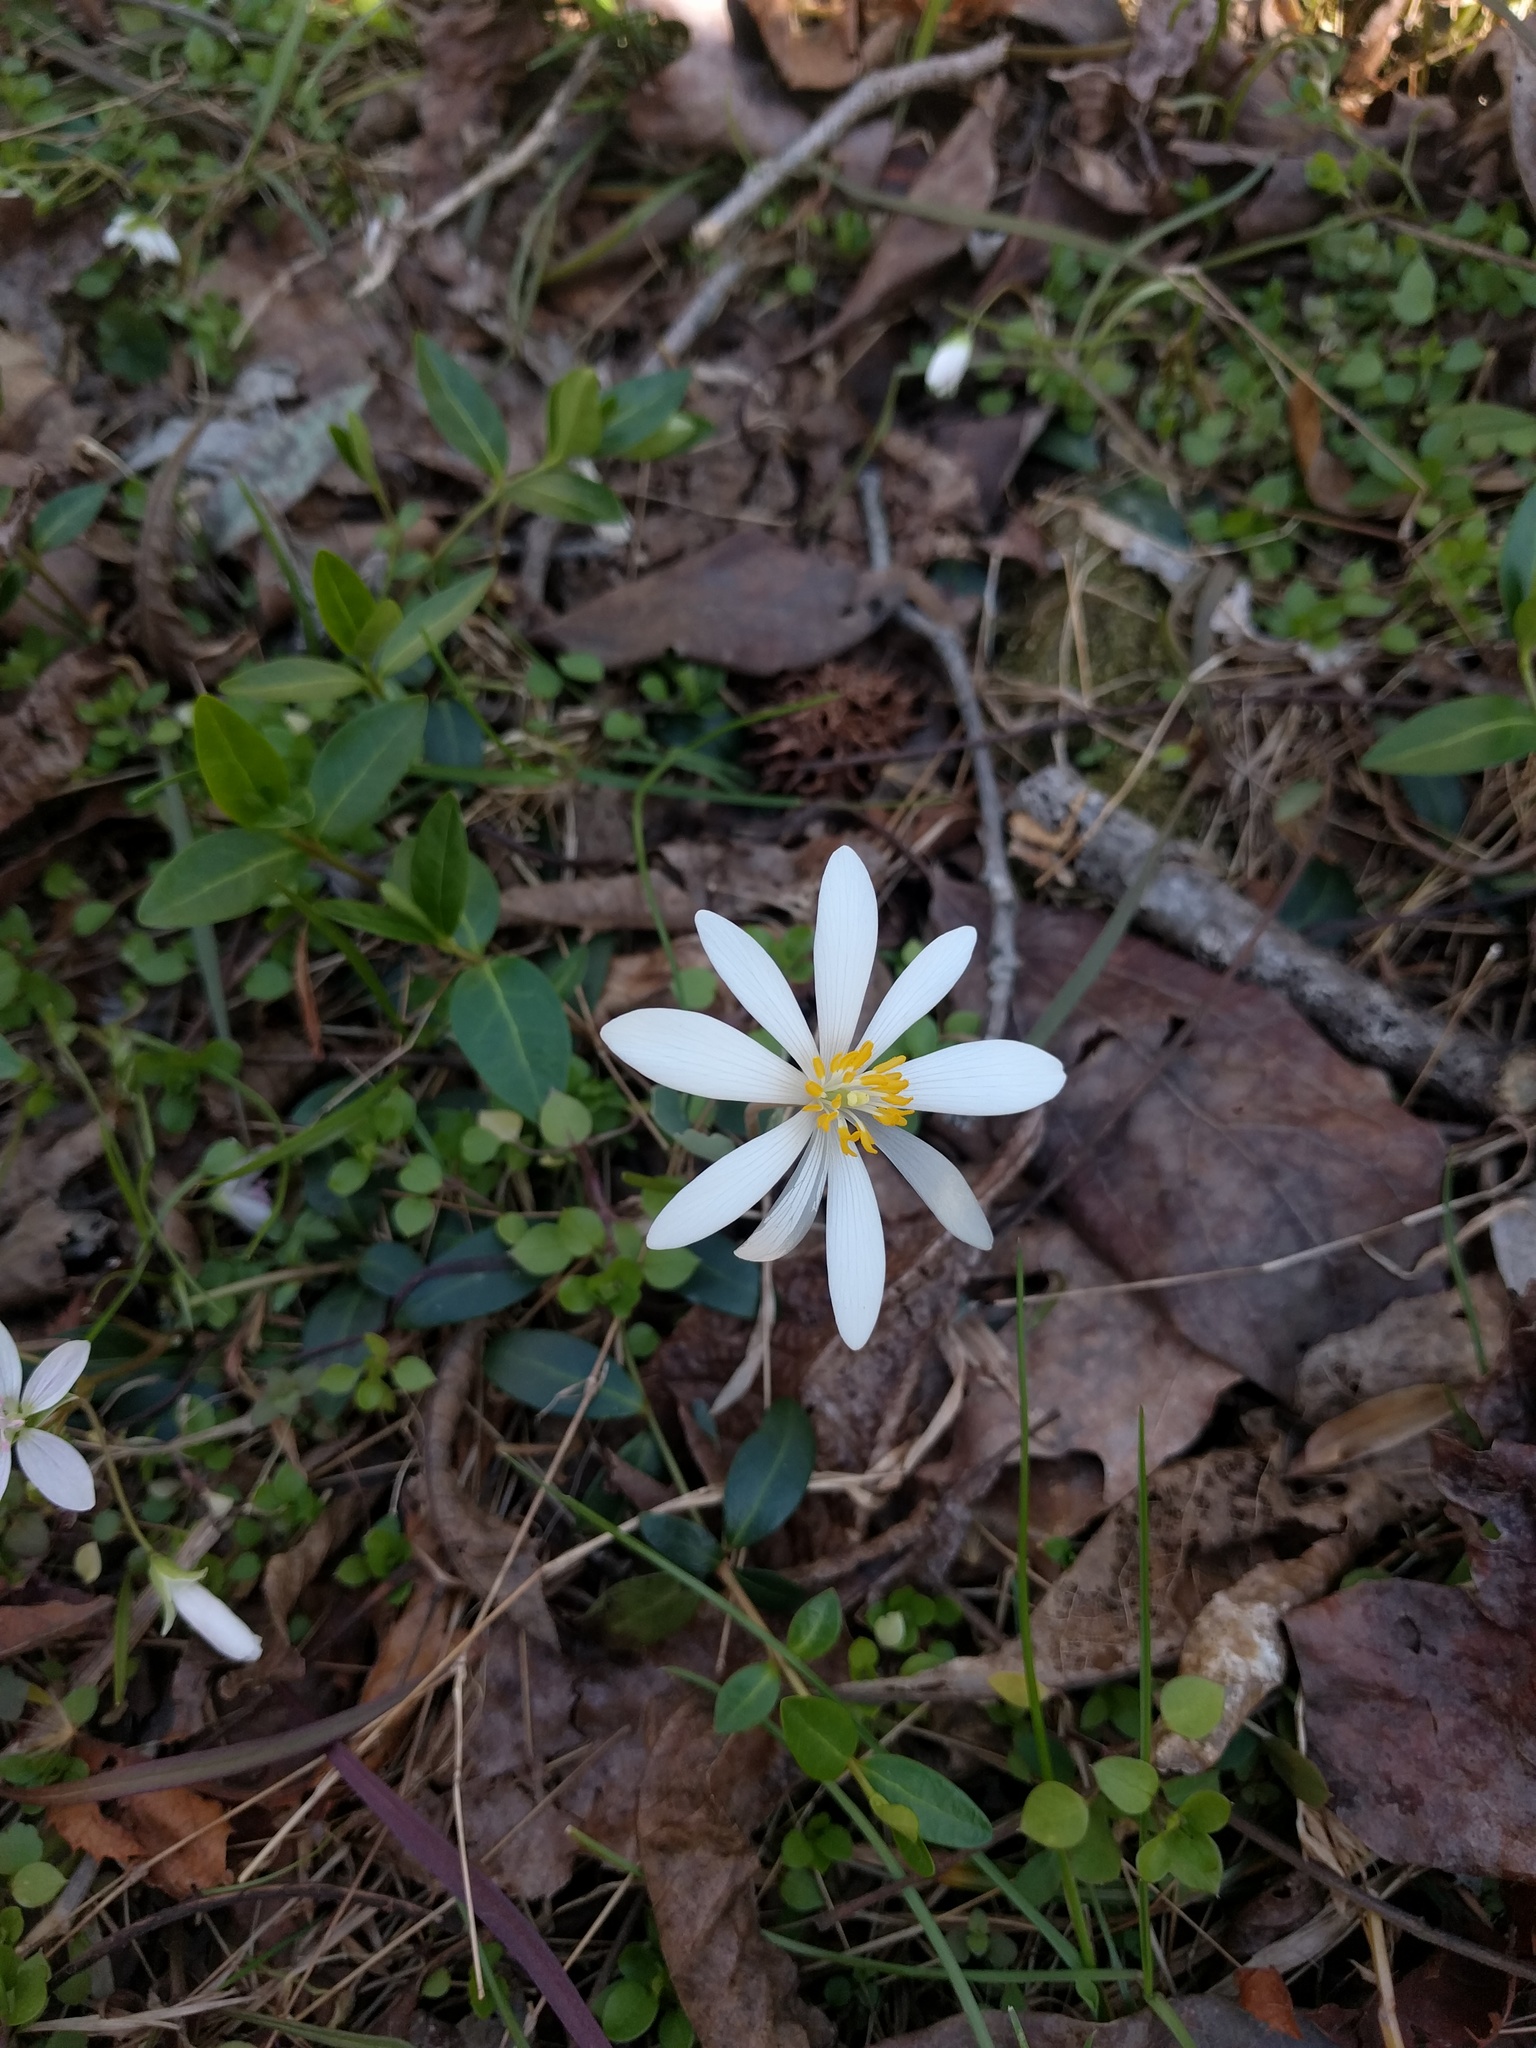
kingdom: Plantae
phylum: Tracheophyta
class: Magnoliopsida
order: Ranunculales
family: Papaveraceae
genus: Sanguinaria
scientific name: Sanguinaria canadensis
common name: Bloodroot
